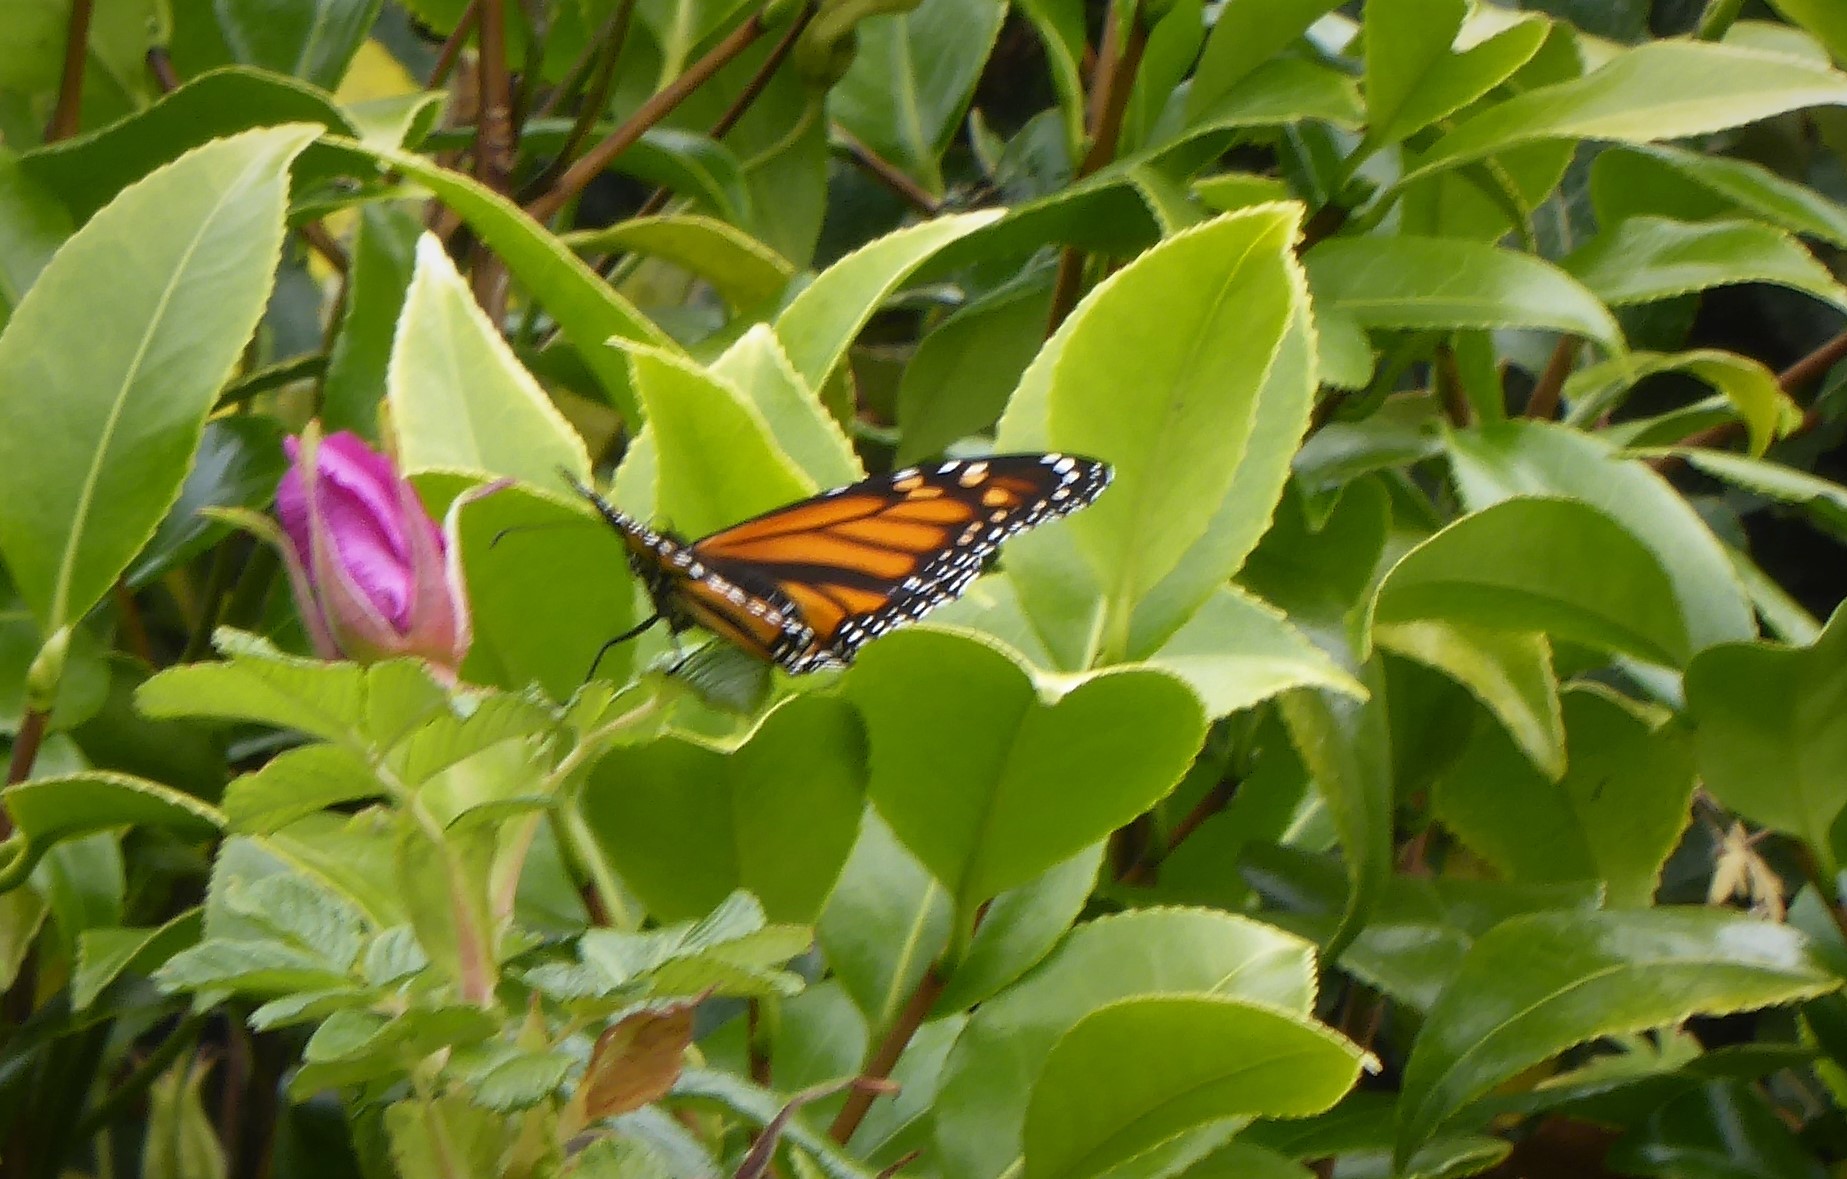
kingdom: Animalia
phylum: Arthropoda
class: Insecta
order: Lepidoptera
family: Nymphalidae
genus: Danaus
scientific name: Danaus plexippus
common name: Monarch
